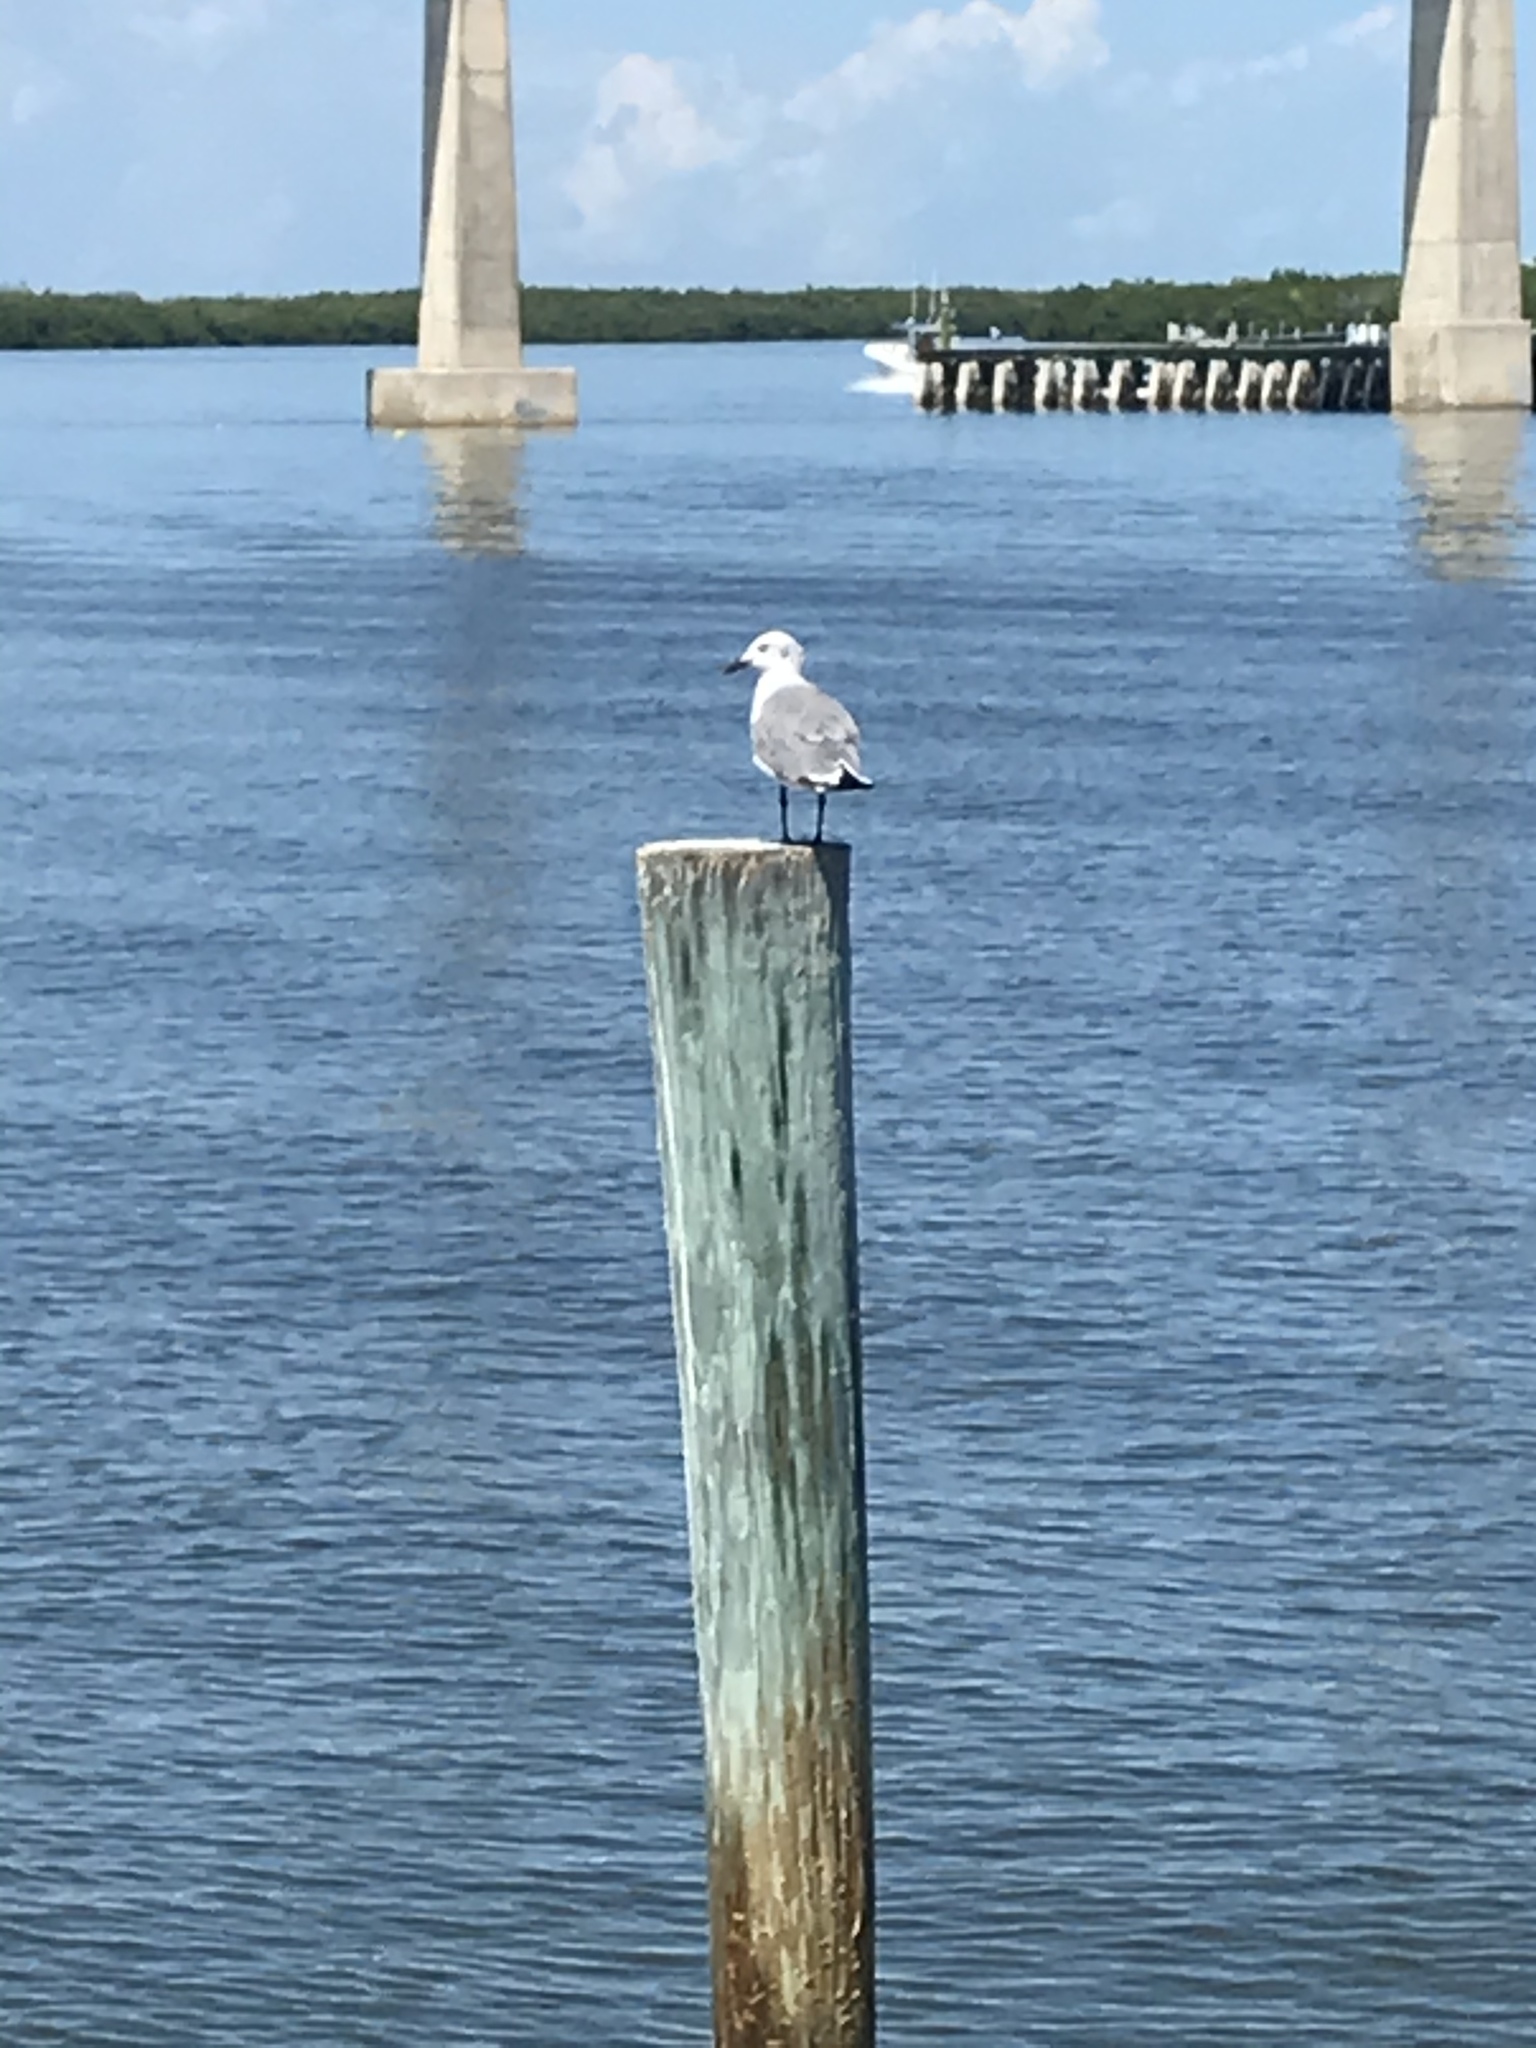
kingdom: Animalia
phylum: Chordata
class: Aves
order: Charadriiformes
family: Laridae
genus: Leucophaeus
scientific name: Leucophaeus atricilla
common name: Laughing gull
